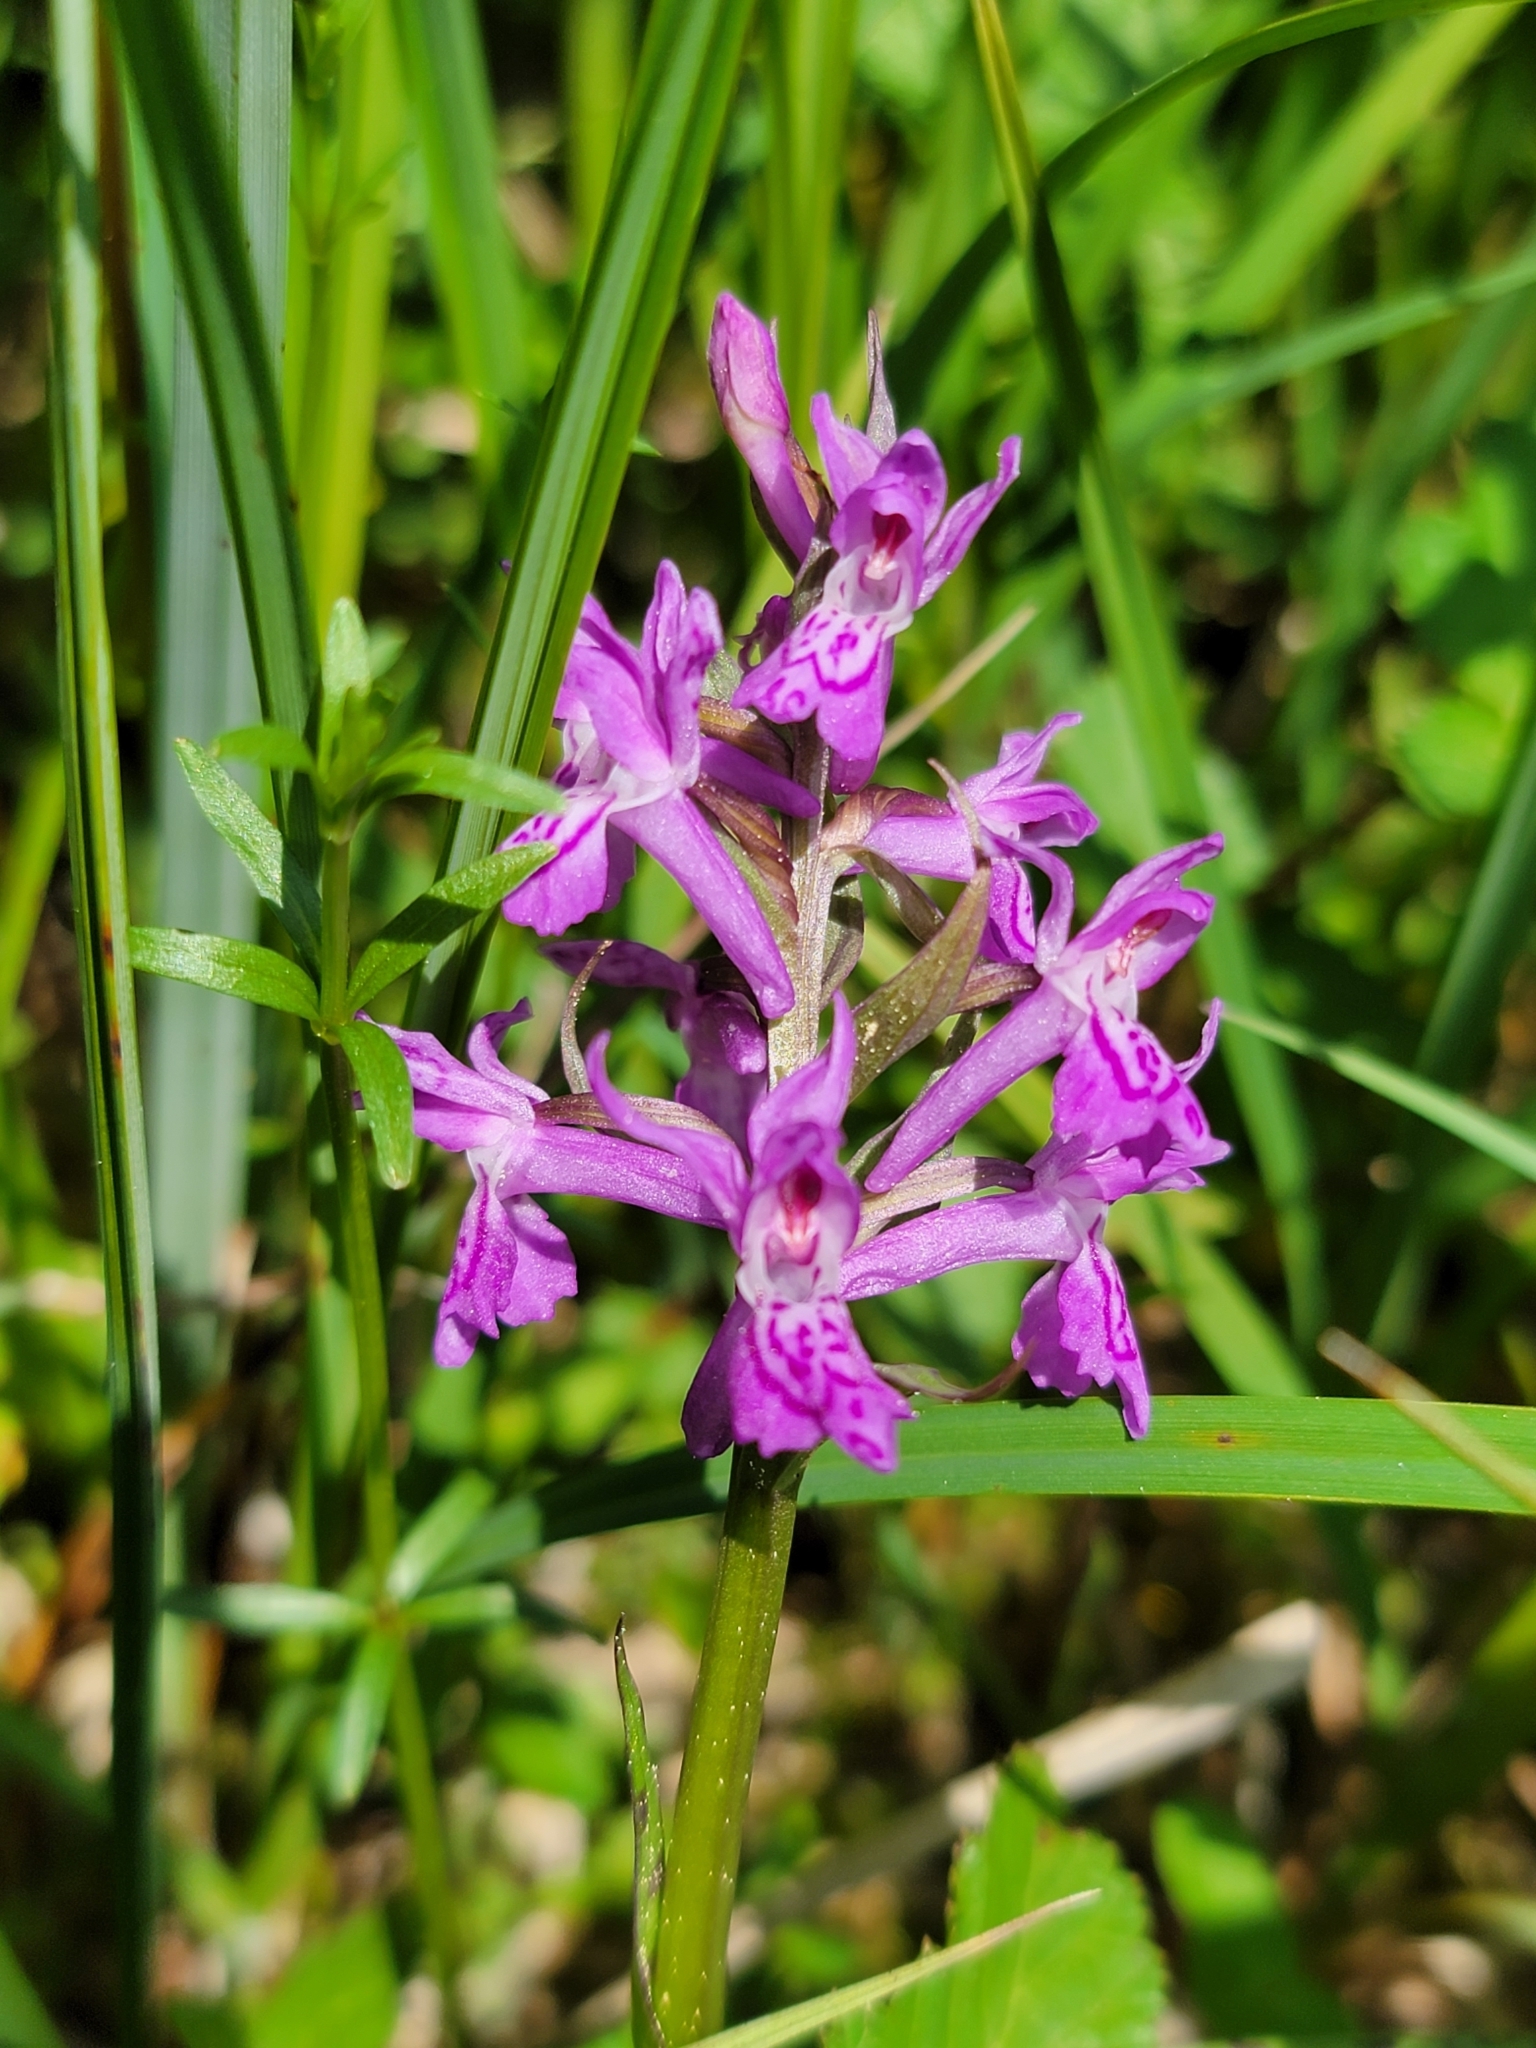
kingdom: Plantae
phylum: Tracheophyta
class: Liliopsida
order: Asparagales
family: Orchidaceae
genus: Dactylorhiza
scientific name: Dactylorhiza majalis
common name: Marsh orchid
